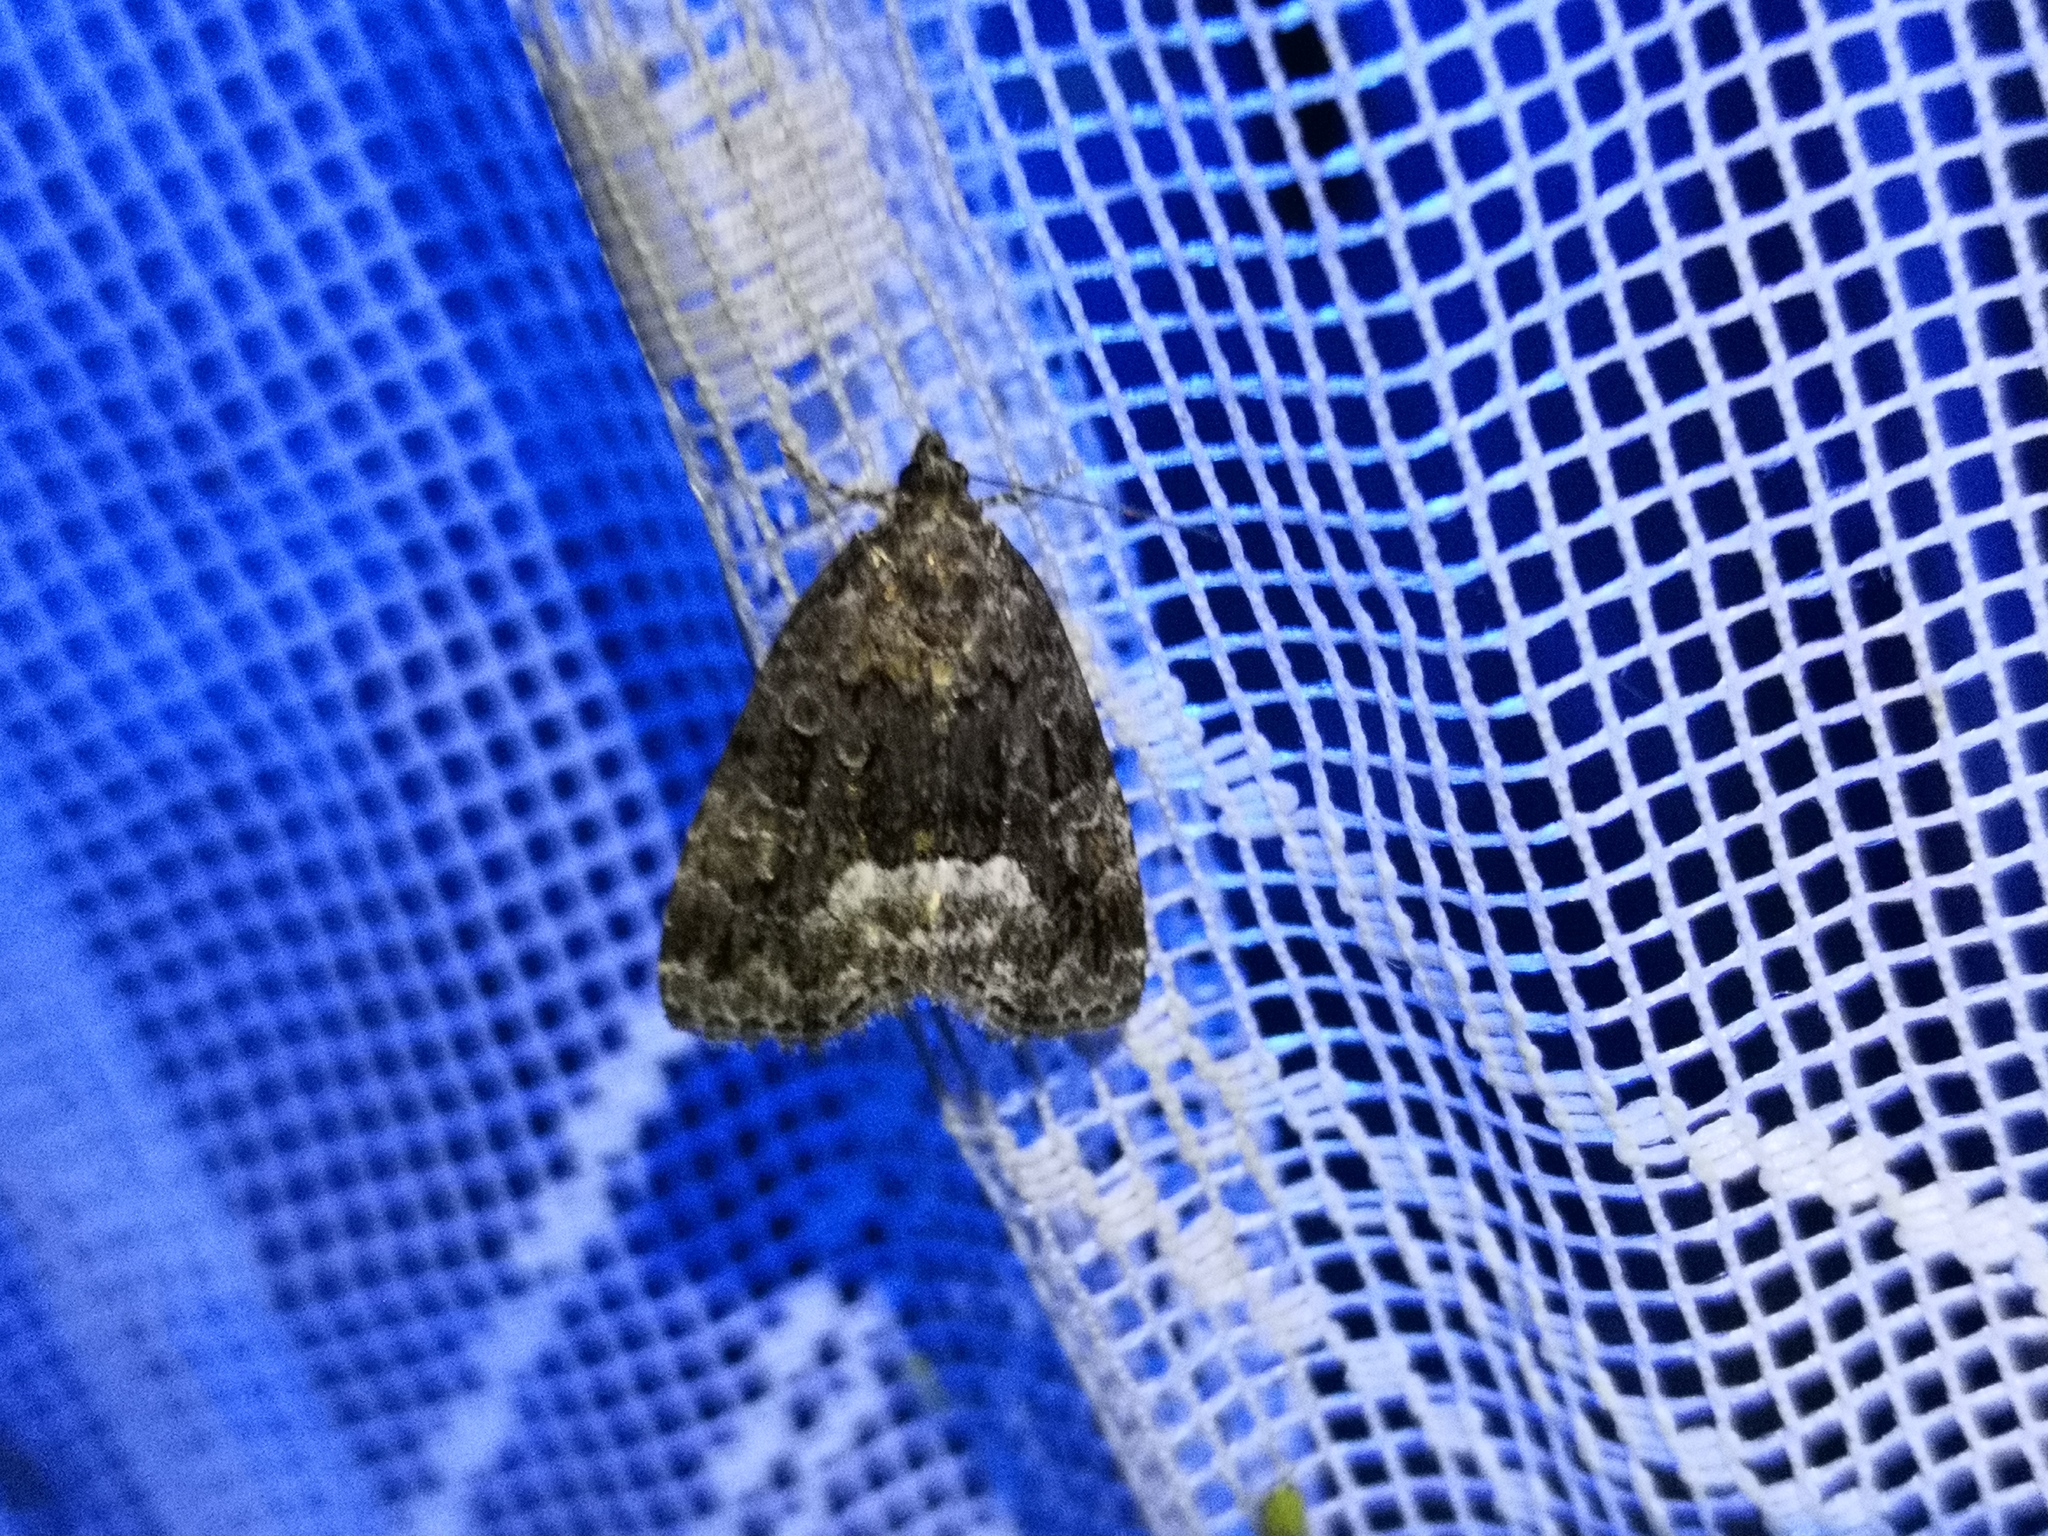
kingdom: Animalia
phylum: Arthropoda
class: Insecta
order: Lepidoptera
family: Noctuidae
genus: Deltote
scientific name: Deltote pygarga
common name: Marbled white spot
